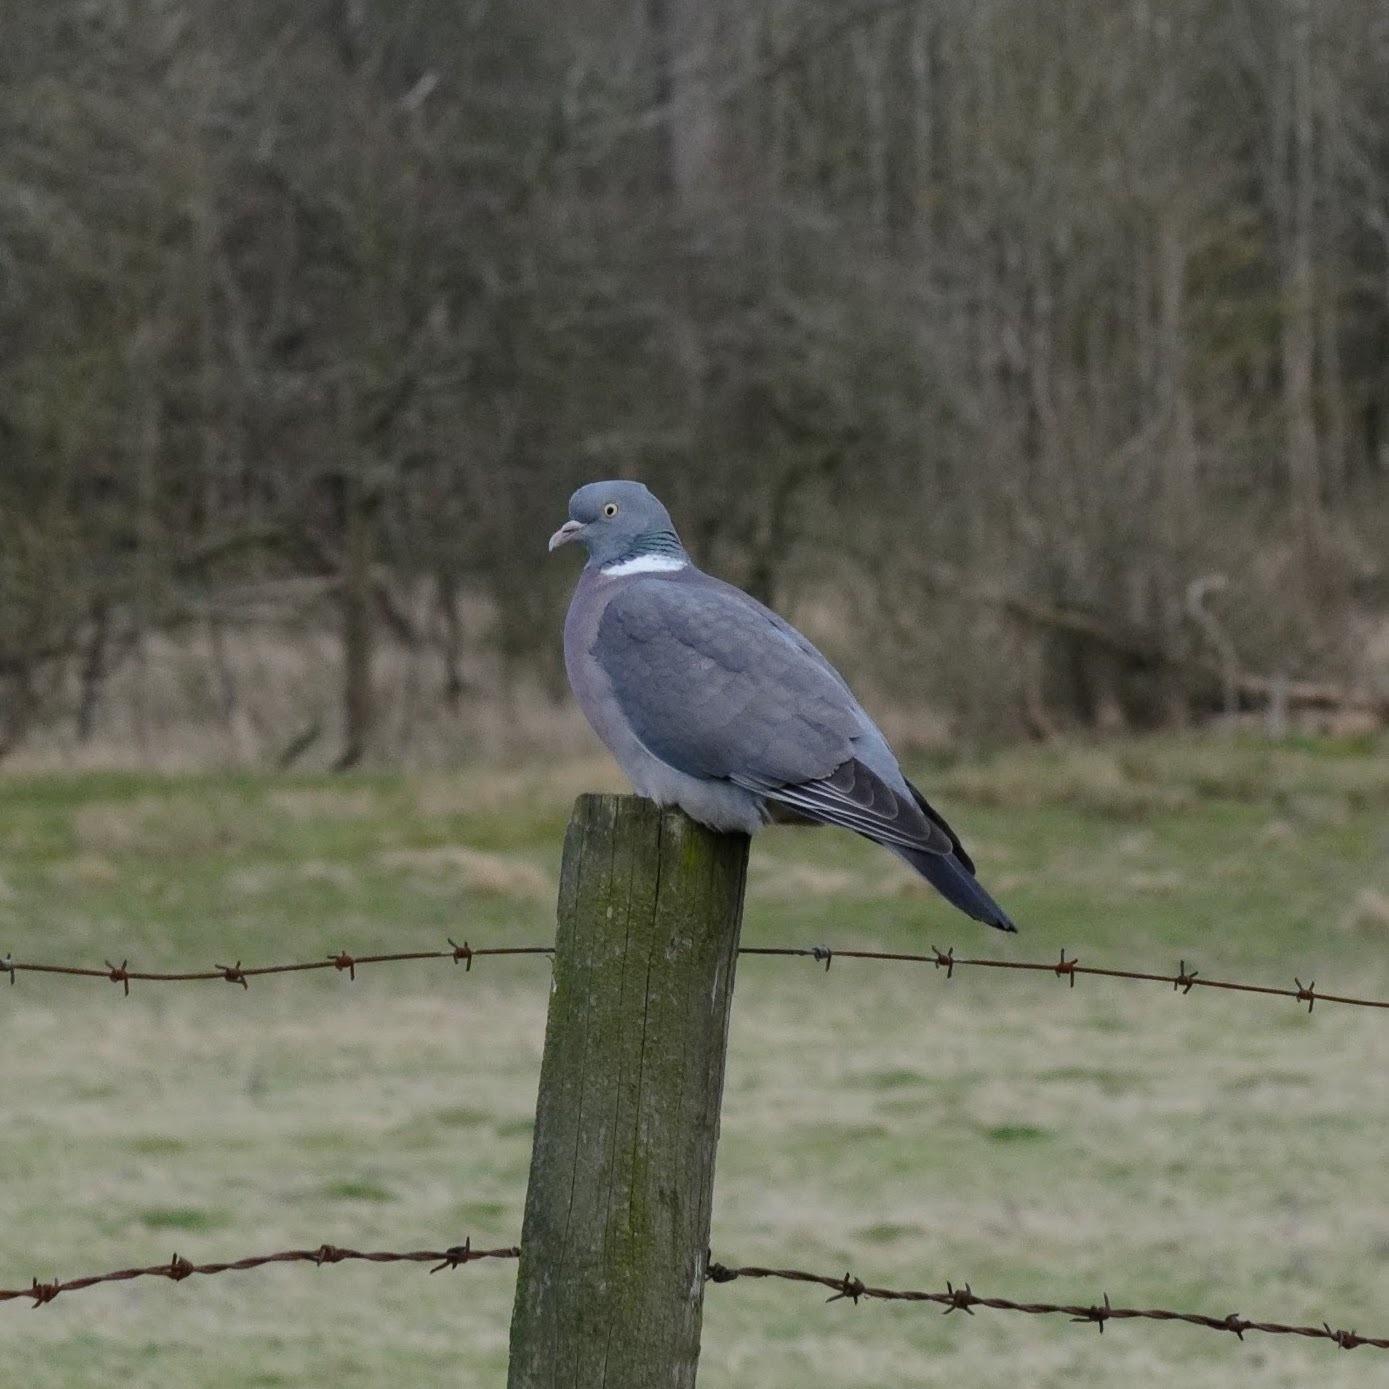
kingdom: Animalia
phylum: Chordata
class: Aves
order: Columbiformes
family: Columbidae
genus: Columba
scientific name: Columba palumbus
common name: Common wood pigeon
